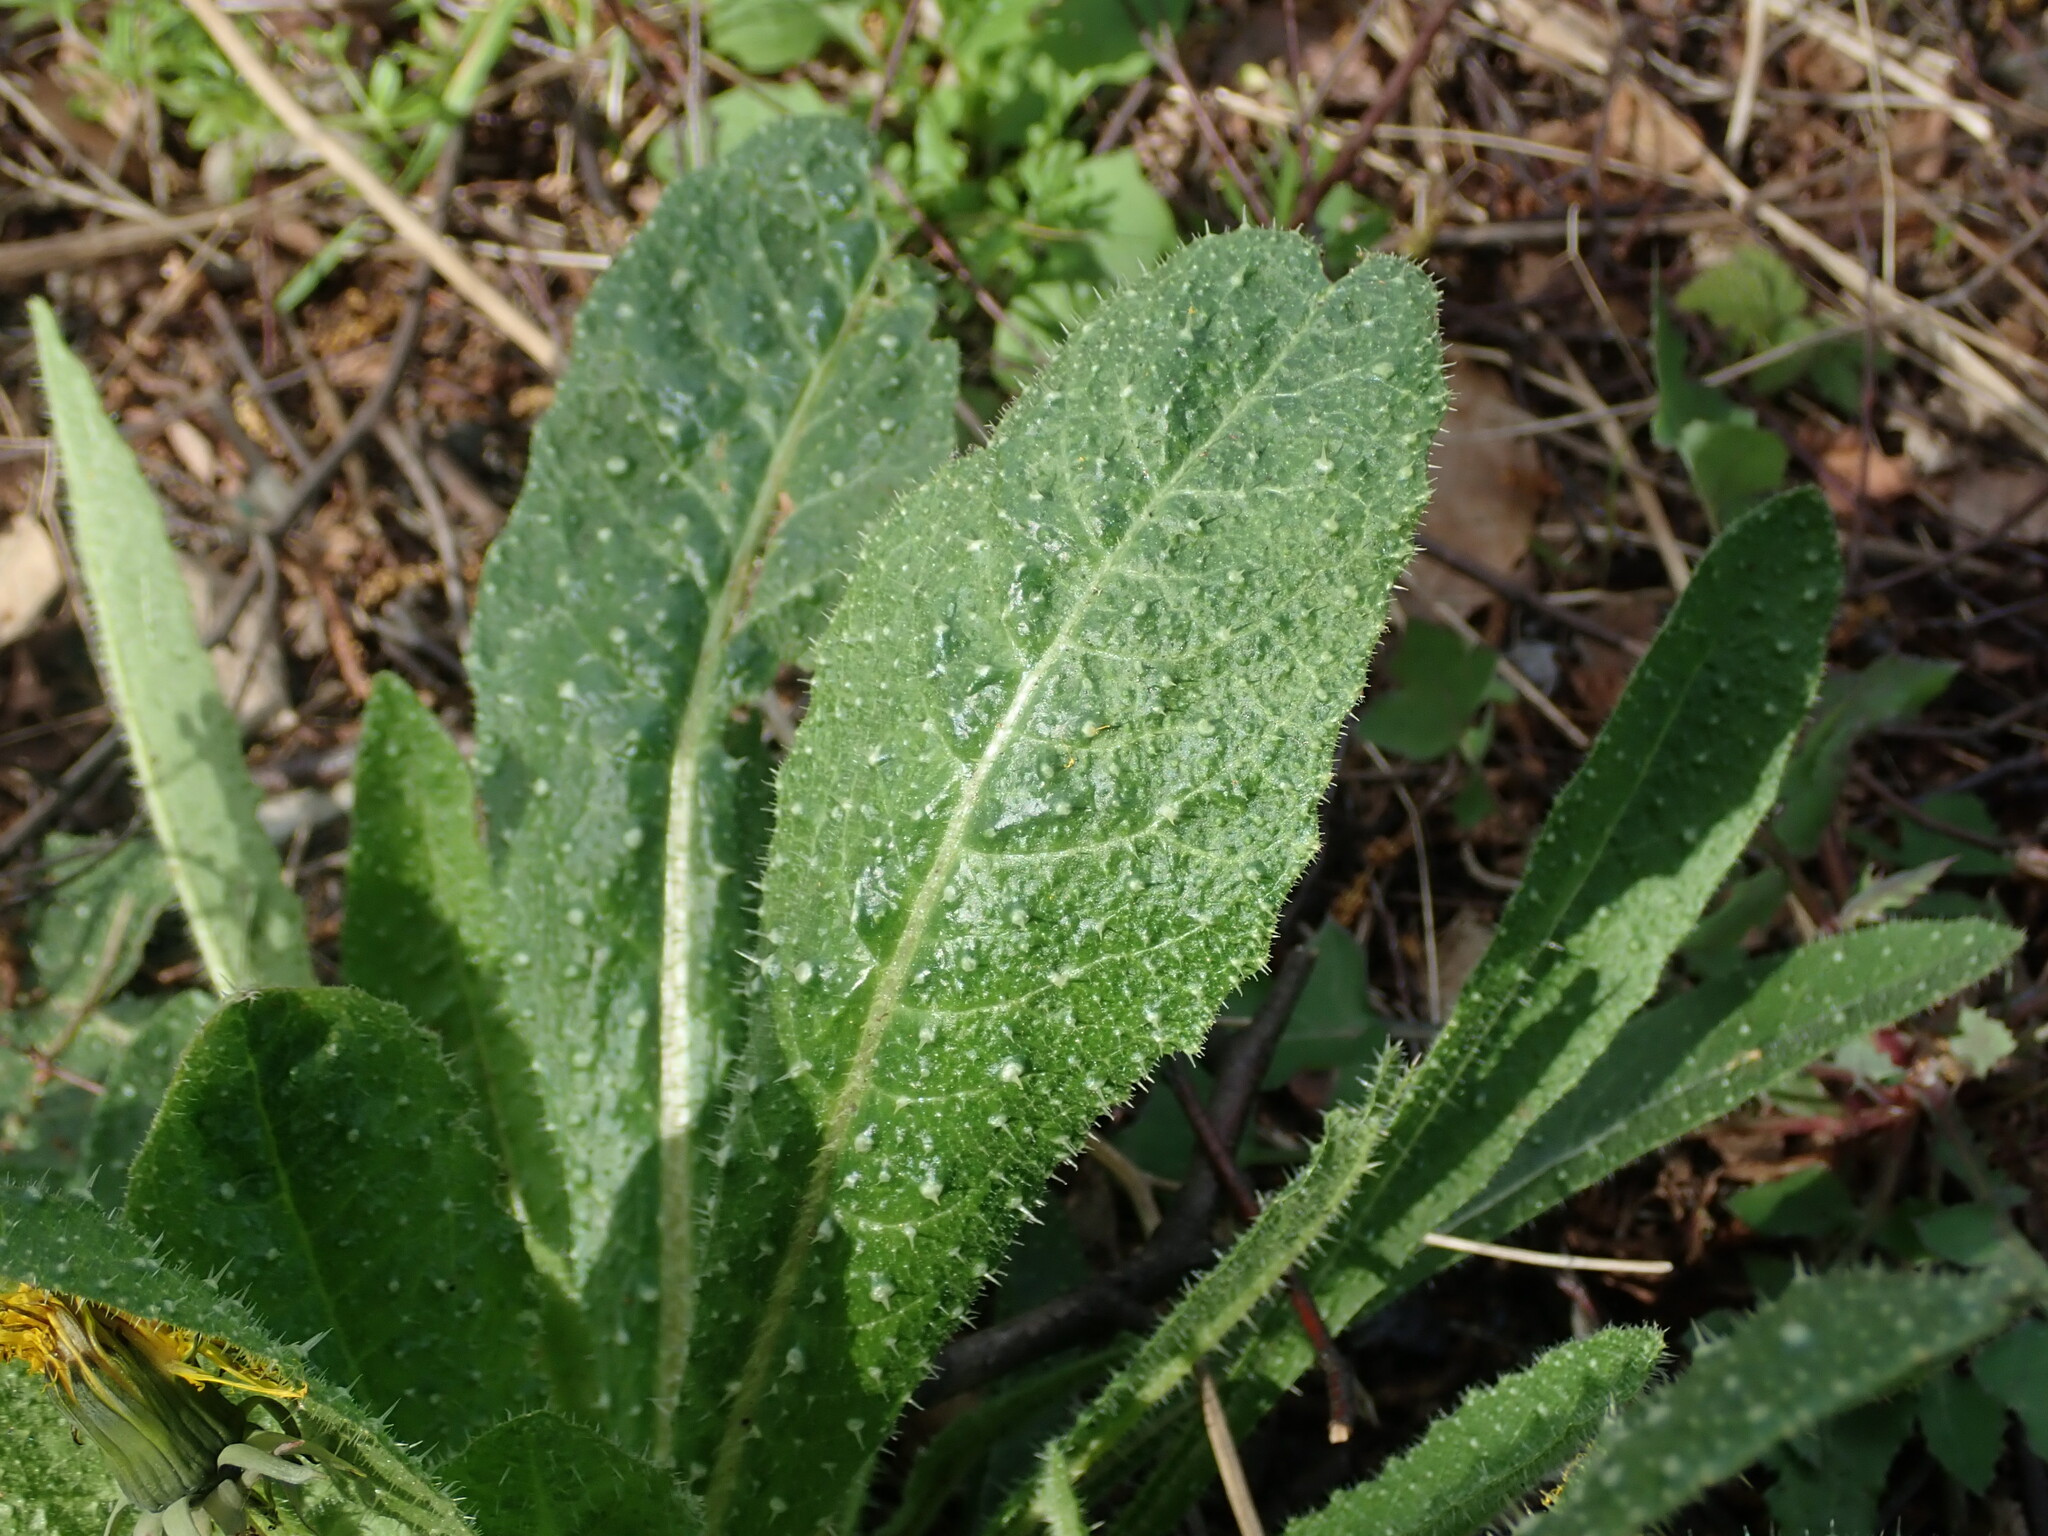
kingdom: Plantae
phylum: Tracheophyta
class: Magnoliopsida
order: Asterales
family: Asteraceae
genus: Helminthotheca
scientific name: Helminthotheca echioides
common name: Ox-tongue
